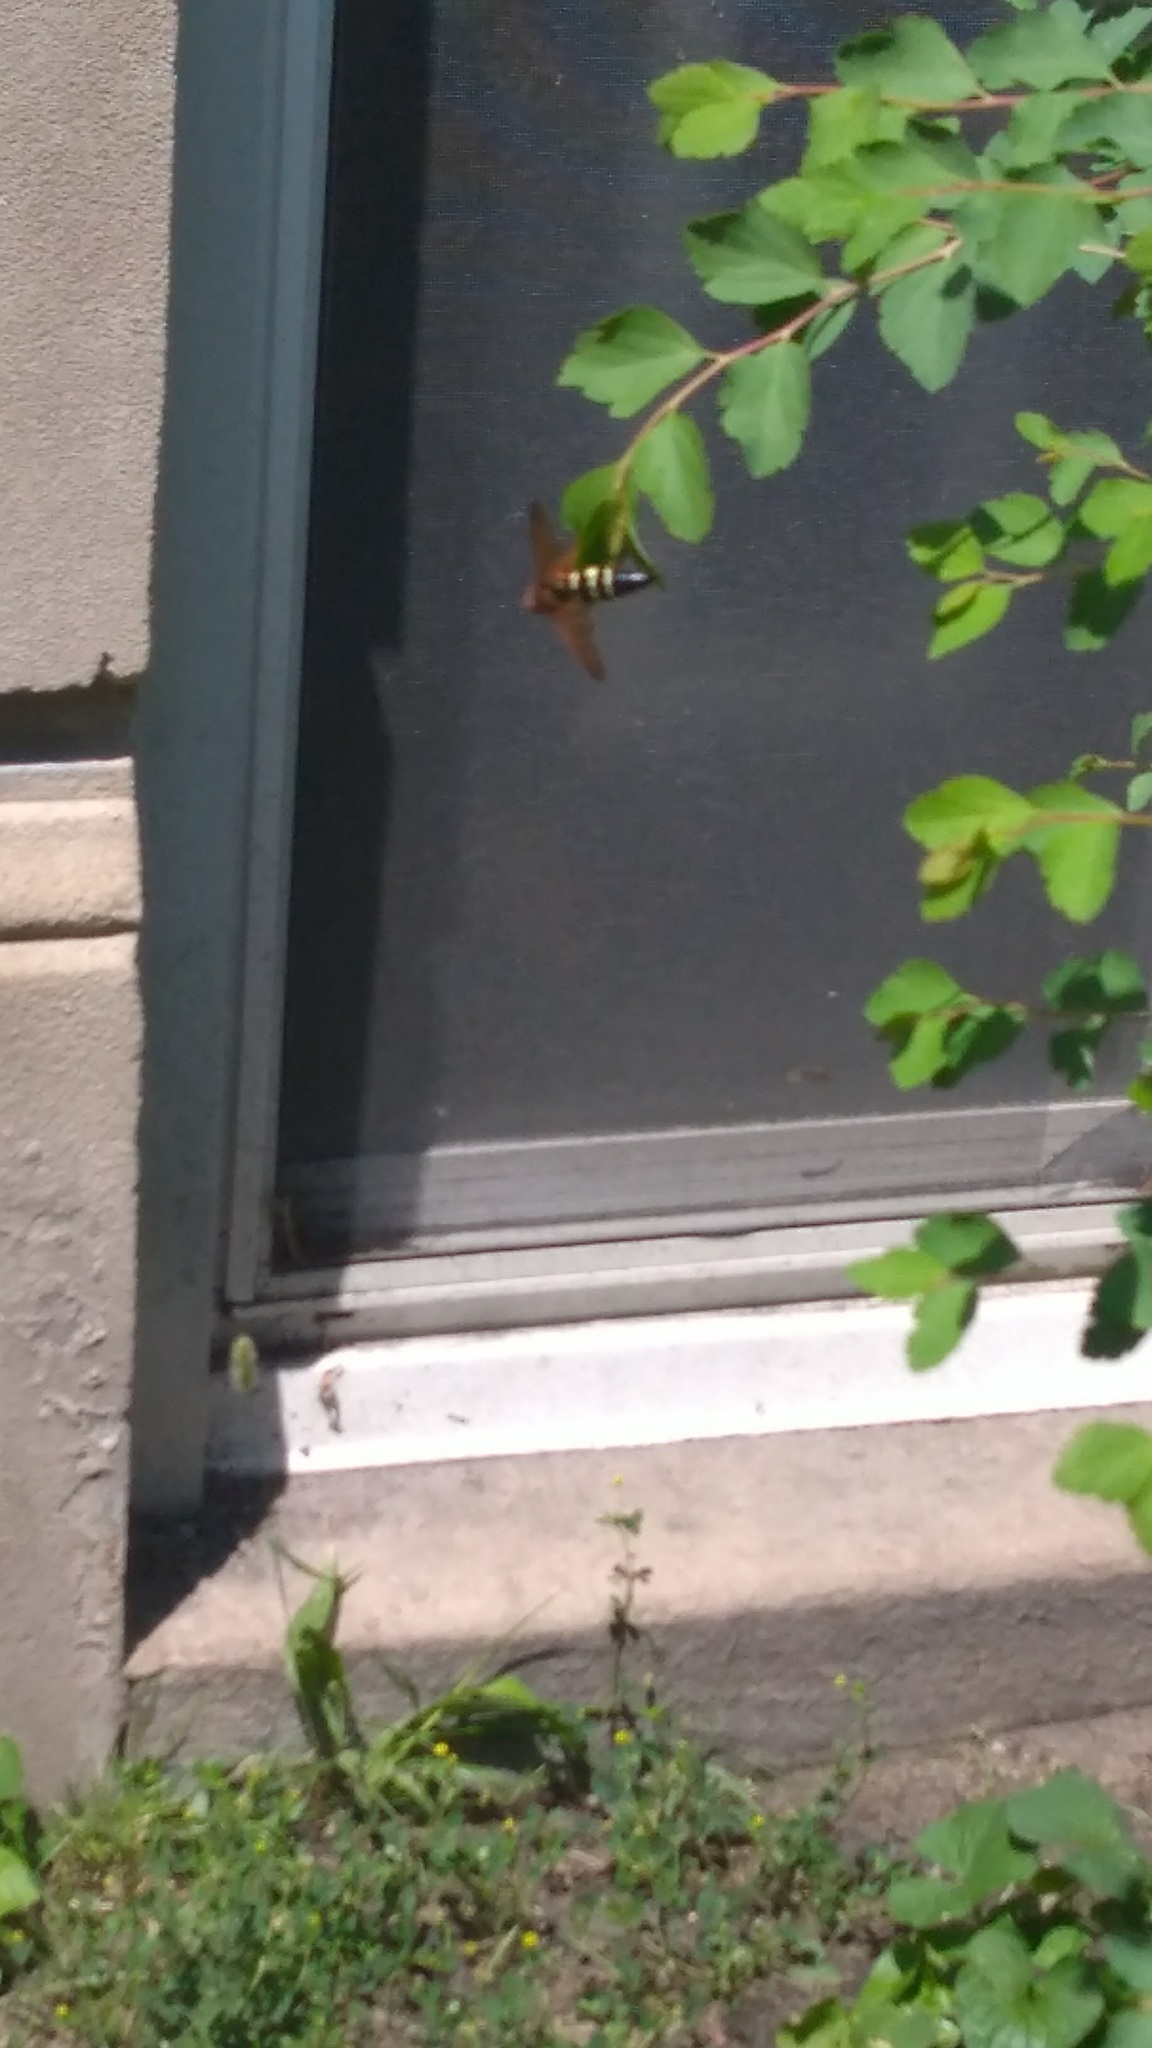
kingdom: Animalia
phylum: Arthropoda
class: Insecta
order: Hymenoptera
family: Crabronidae
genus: Sphecius
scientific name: Sphecius speciosus
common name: Cicada killer
